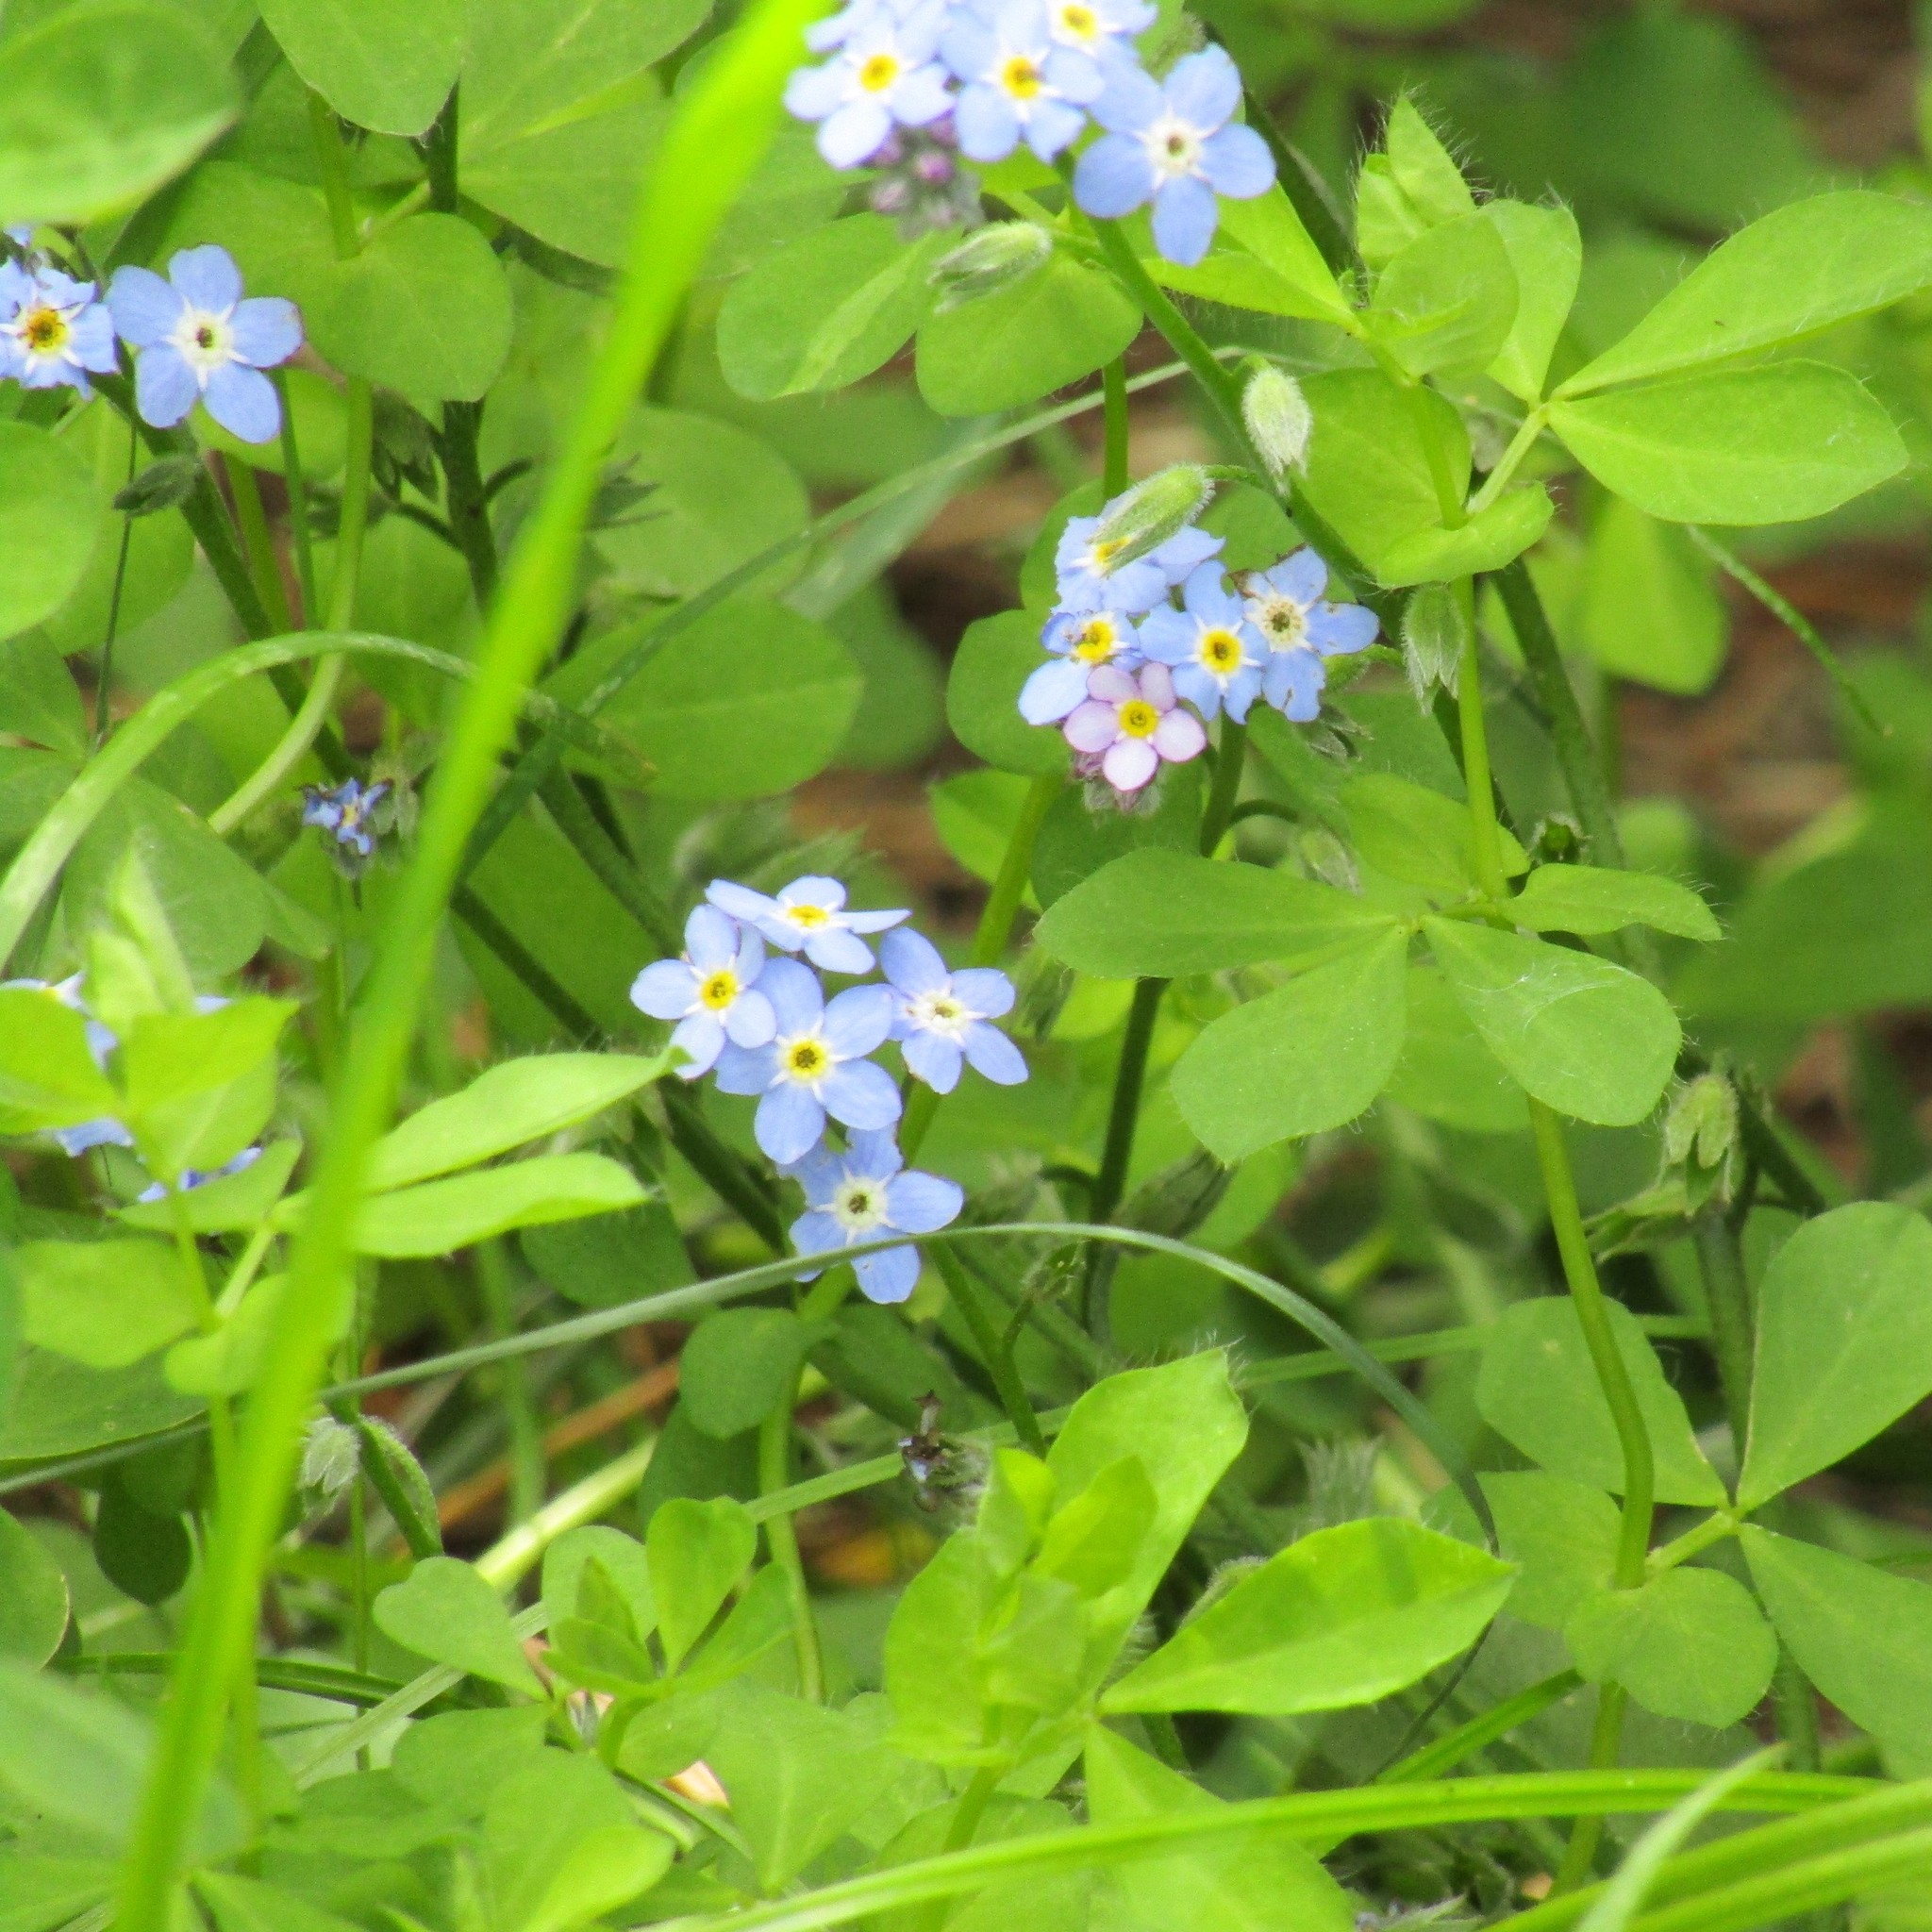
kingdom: Plantae
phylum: Tracheophyta
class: Magnoliopsida
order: Boraginales
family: Boraginaceae
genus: Myosotis
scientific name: Myosotis sylvatica
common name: Wood forget-me-not
